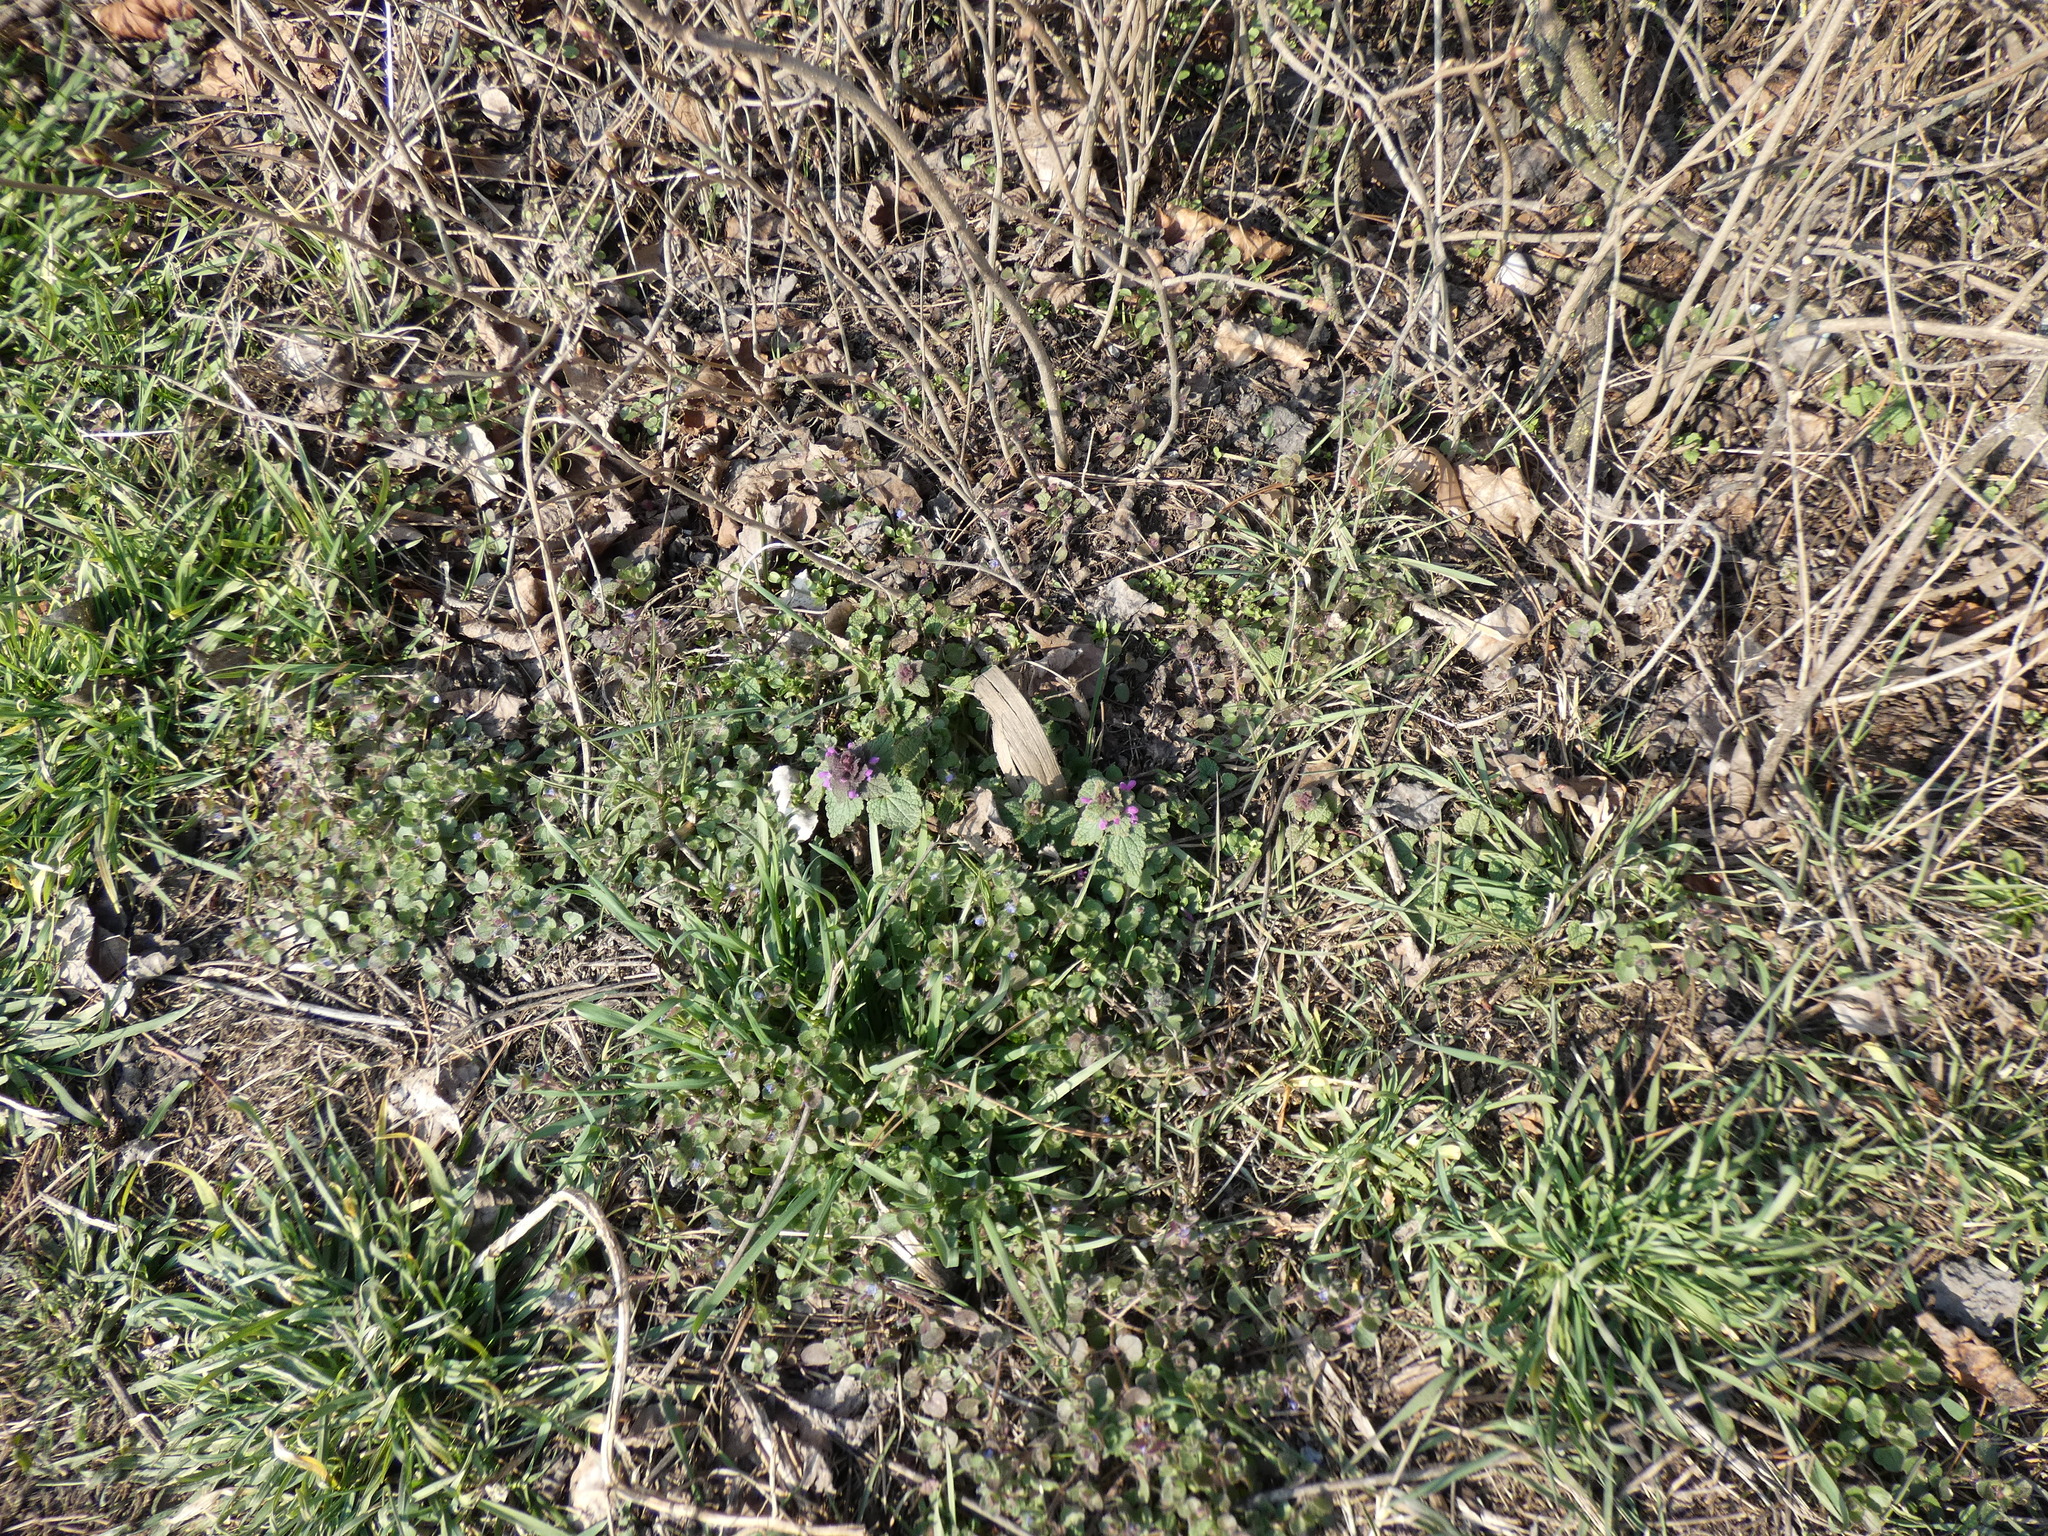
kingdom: Plantae
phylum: Tracheophyta
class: Magnoliopsida
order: Lamiales
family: Lamiaceae
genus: Lamium
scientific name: Lamium purpureum
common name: Red dead-nettle
